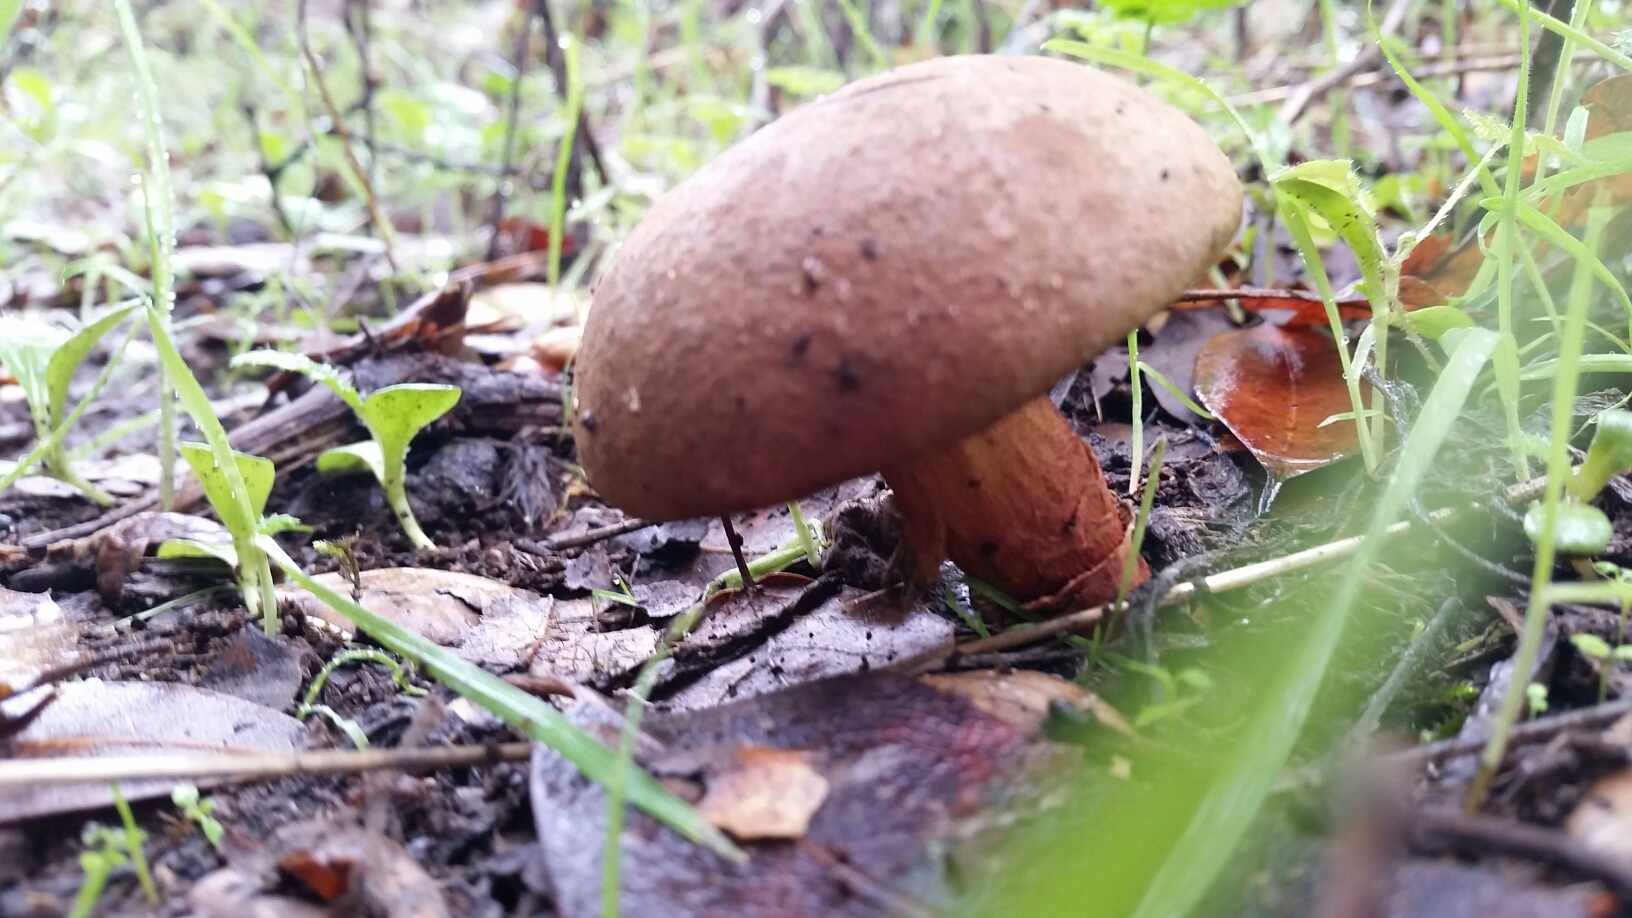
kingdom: Fungi
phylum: Basidiomycota
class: Agaricomycetes
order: Boletales
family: Boletaceae
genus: Xerocomus
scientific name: Xerocomus subtomentosus
